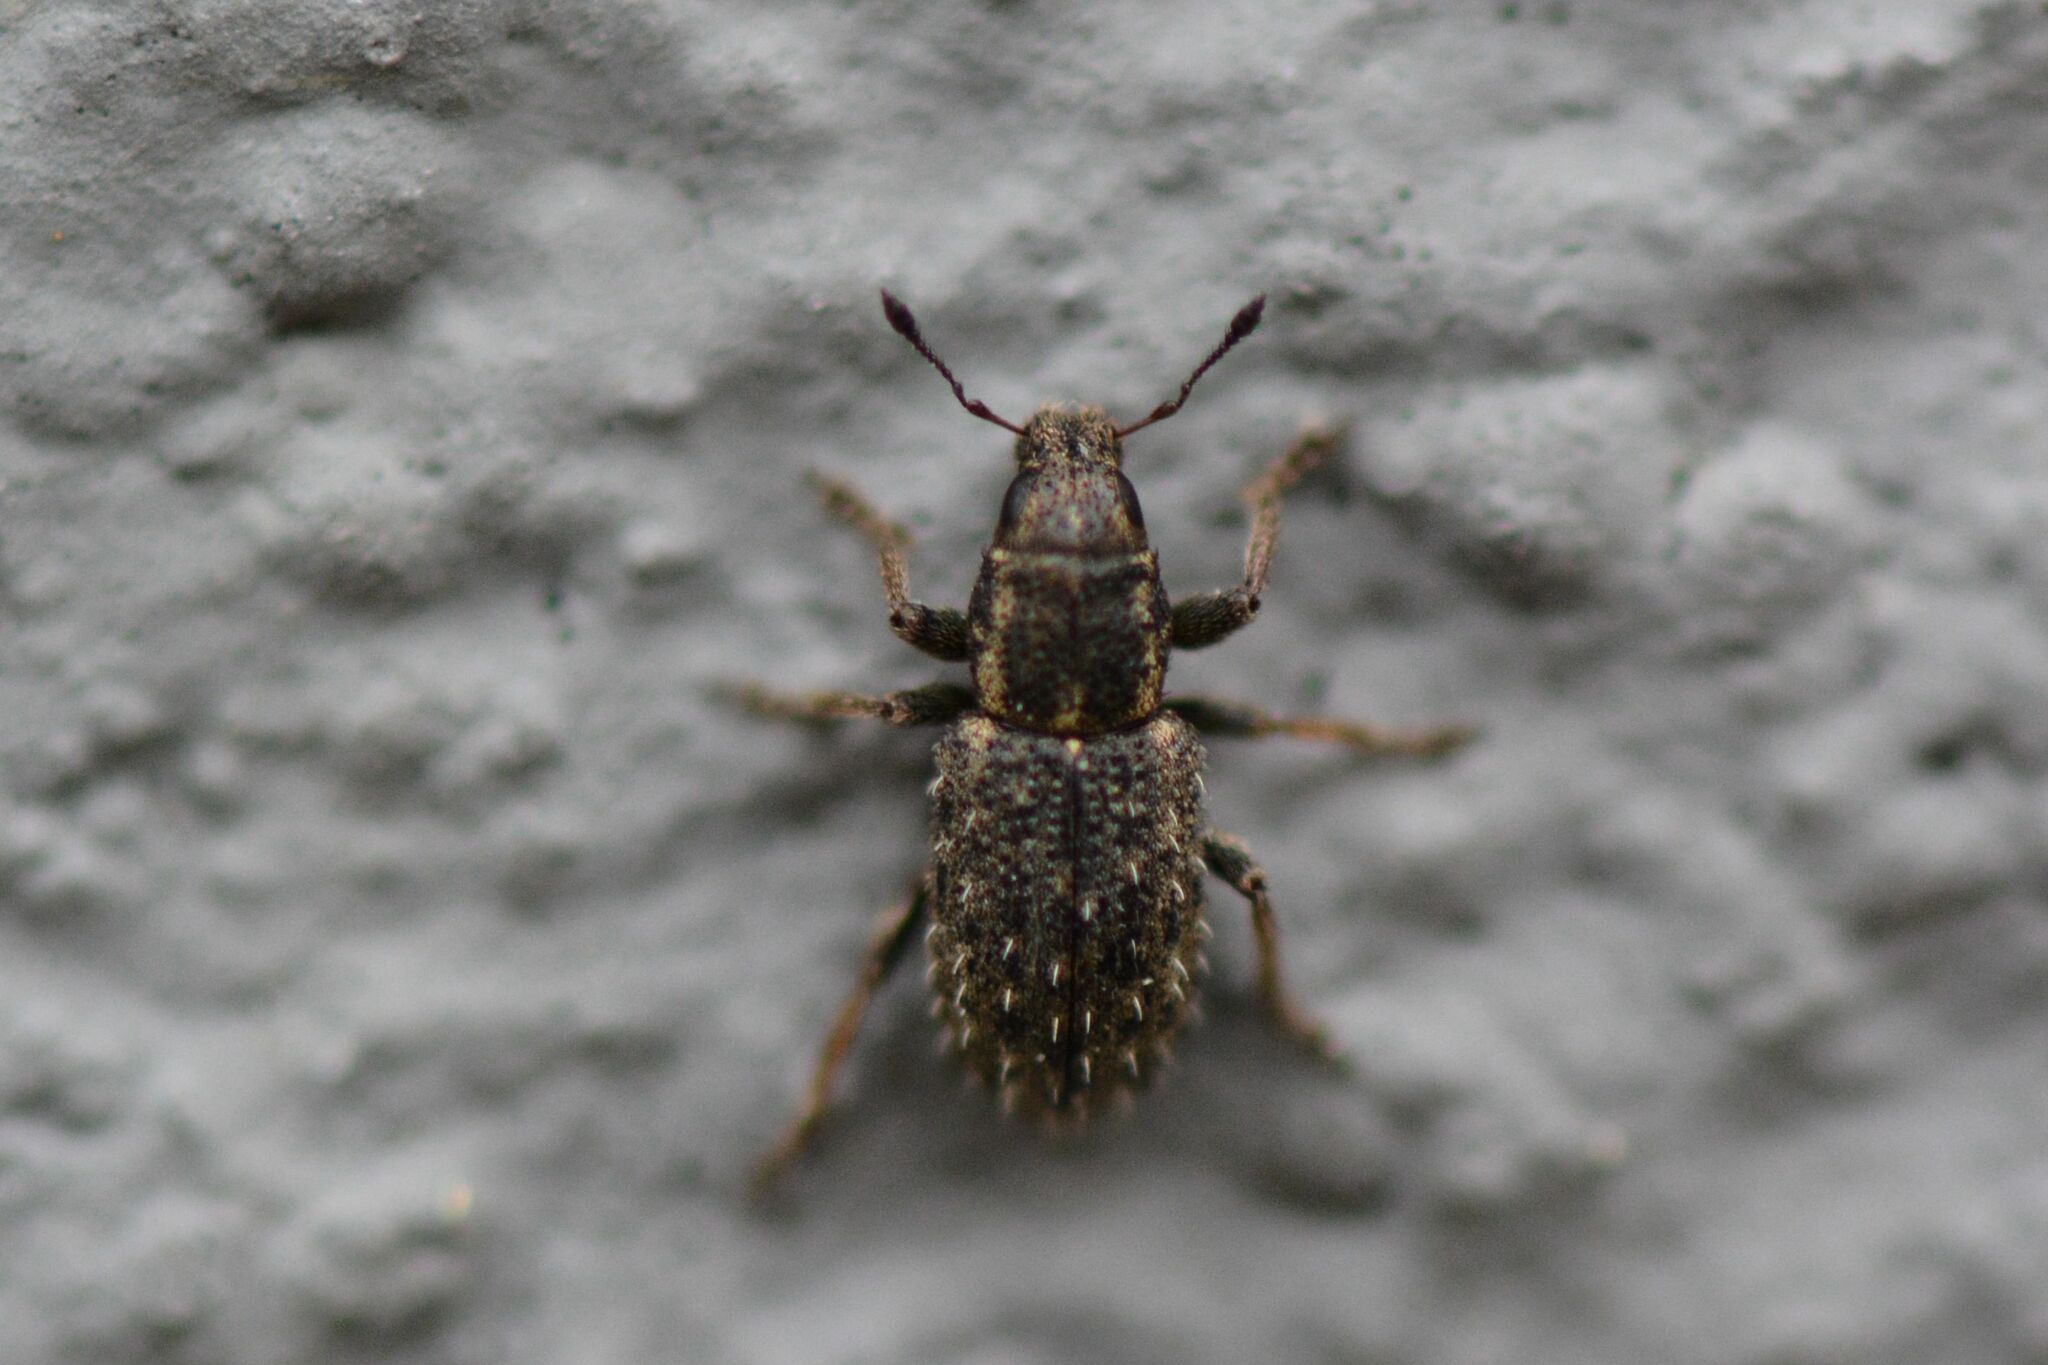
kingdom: Animalia
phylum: Arthropoda
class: Insecta
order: Coleoptera
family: Curculionidae
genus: Sitona
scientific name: Sitona hispidulus
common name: Clover weevil
